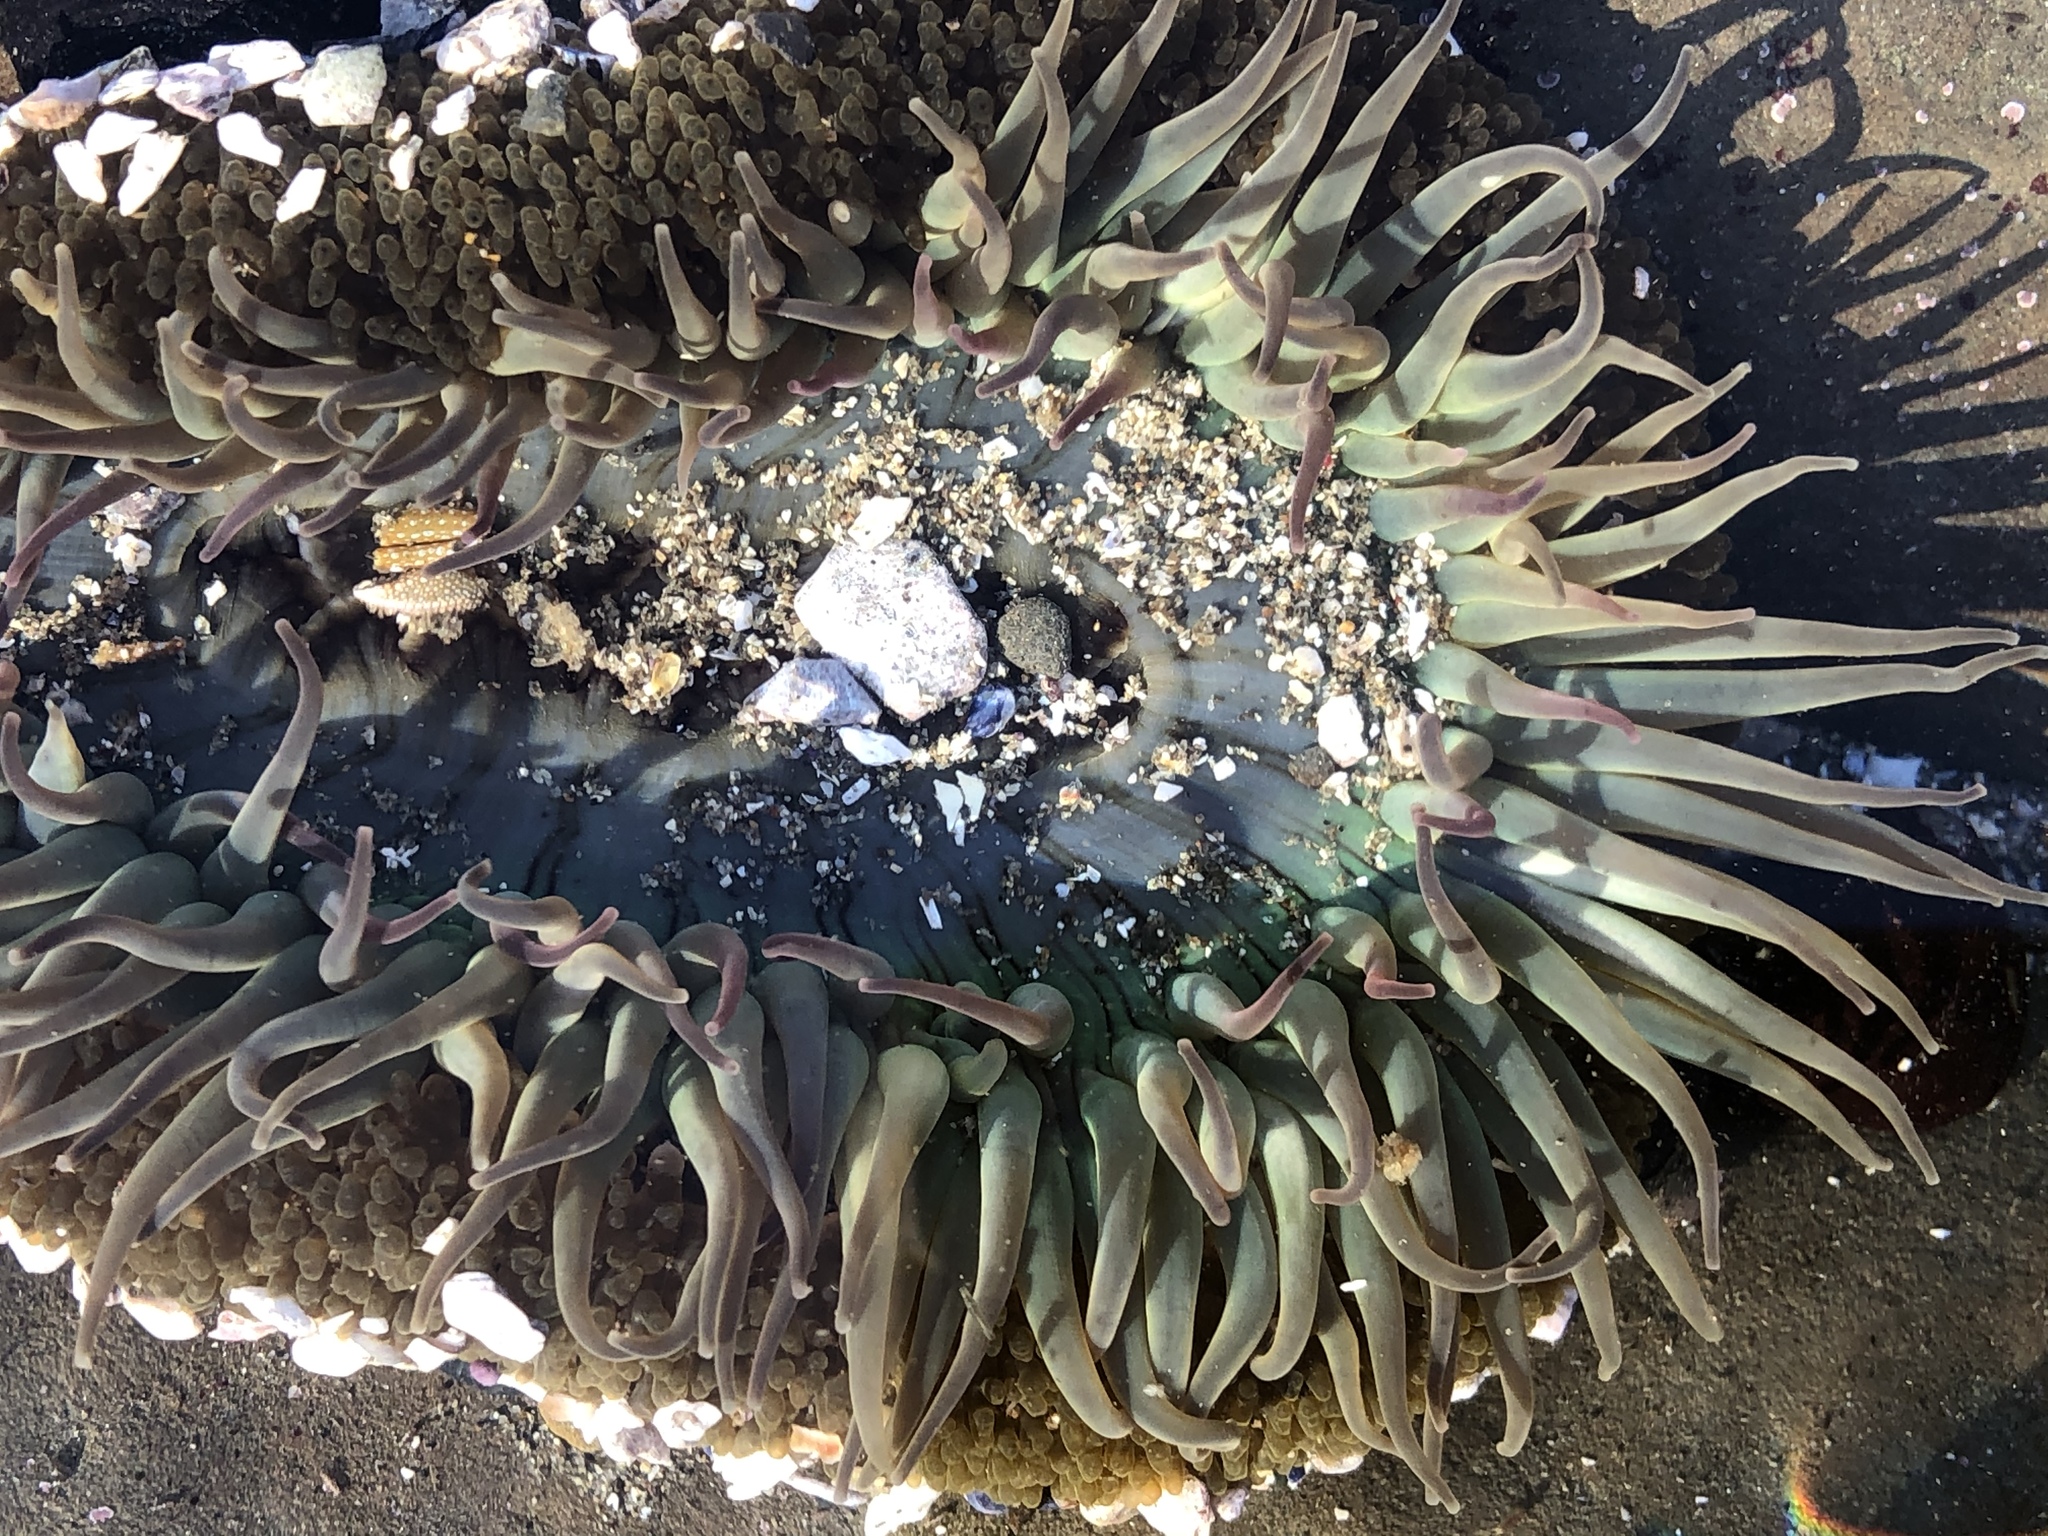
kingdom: Animalia
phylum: Cnidaria
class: Anthozoa
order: Actiniaria
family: Actiniidae
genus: Anthopleura
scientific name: Anthopleura sola
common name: Sun anemone
